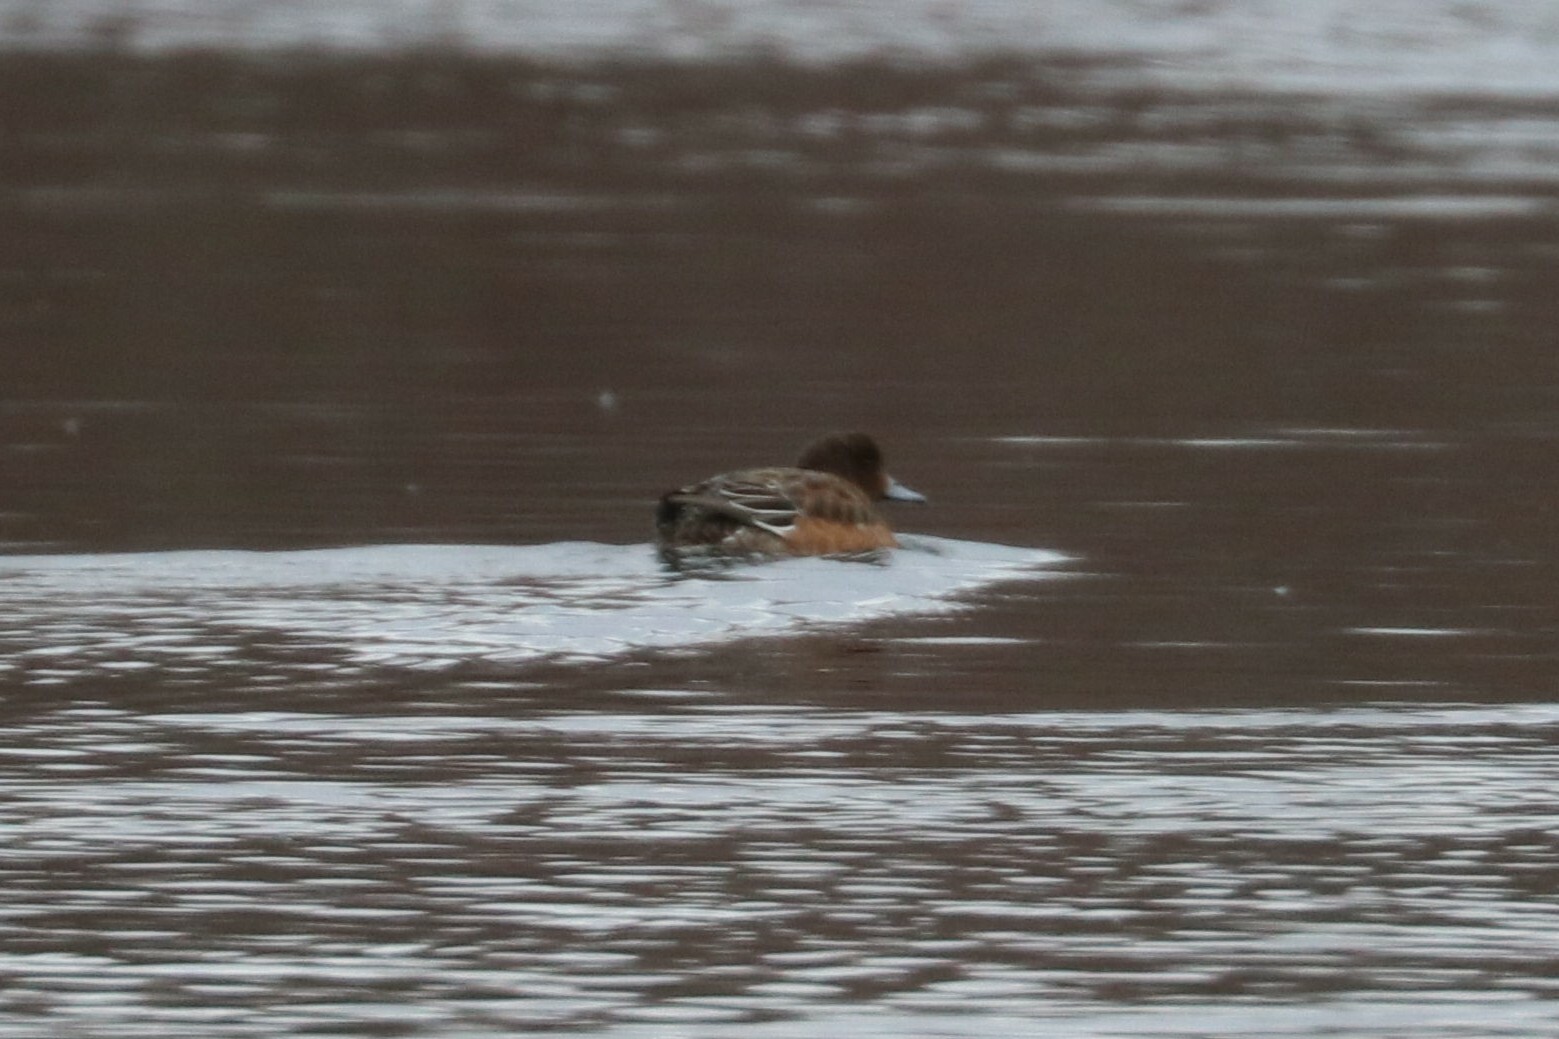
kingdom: Animalia
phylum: Chordata
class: Aves
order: Anseriformes
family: Anatidae
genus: Mareca
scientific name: Mareca penelope
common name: Eurasian wigeon
